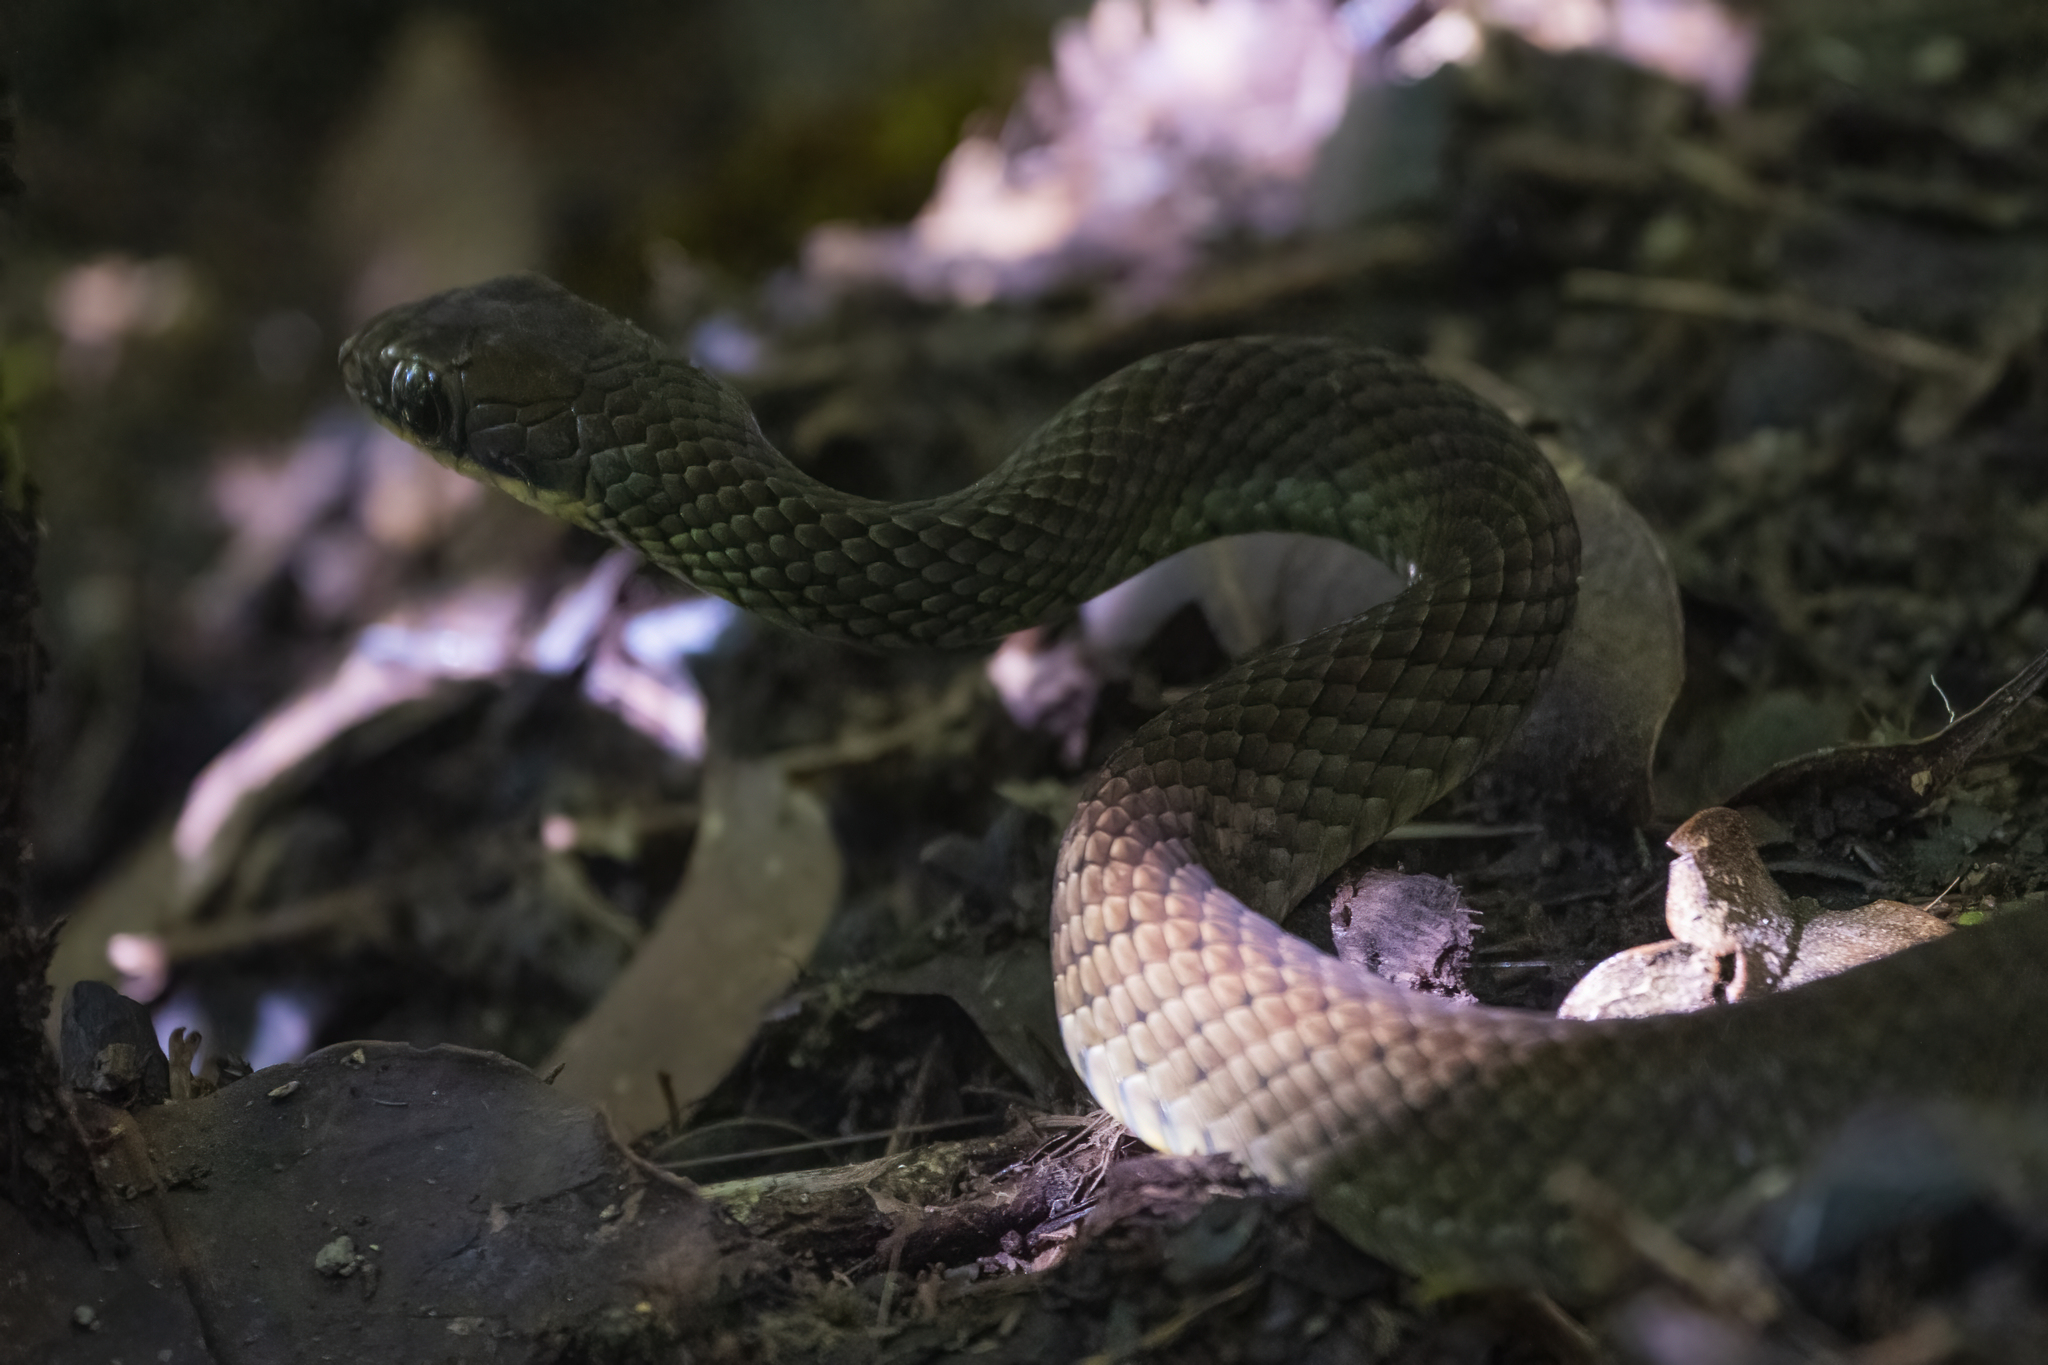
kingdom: Animalia
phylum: Chordata
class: Squamata
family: Colubridae
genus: Dendrophidion
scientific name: Dendrophidion paucicarinatum
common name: Cope's forest racer
